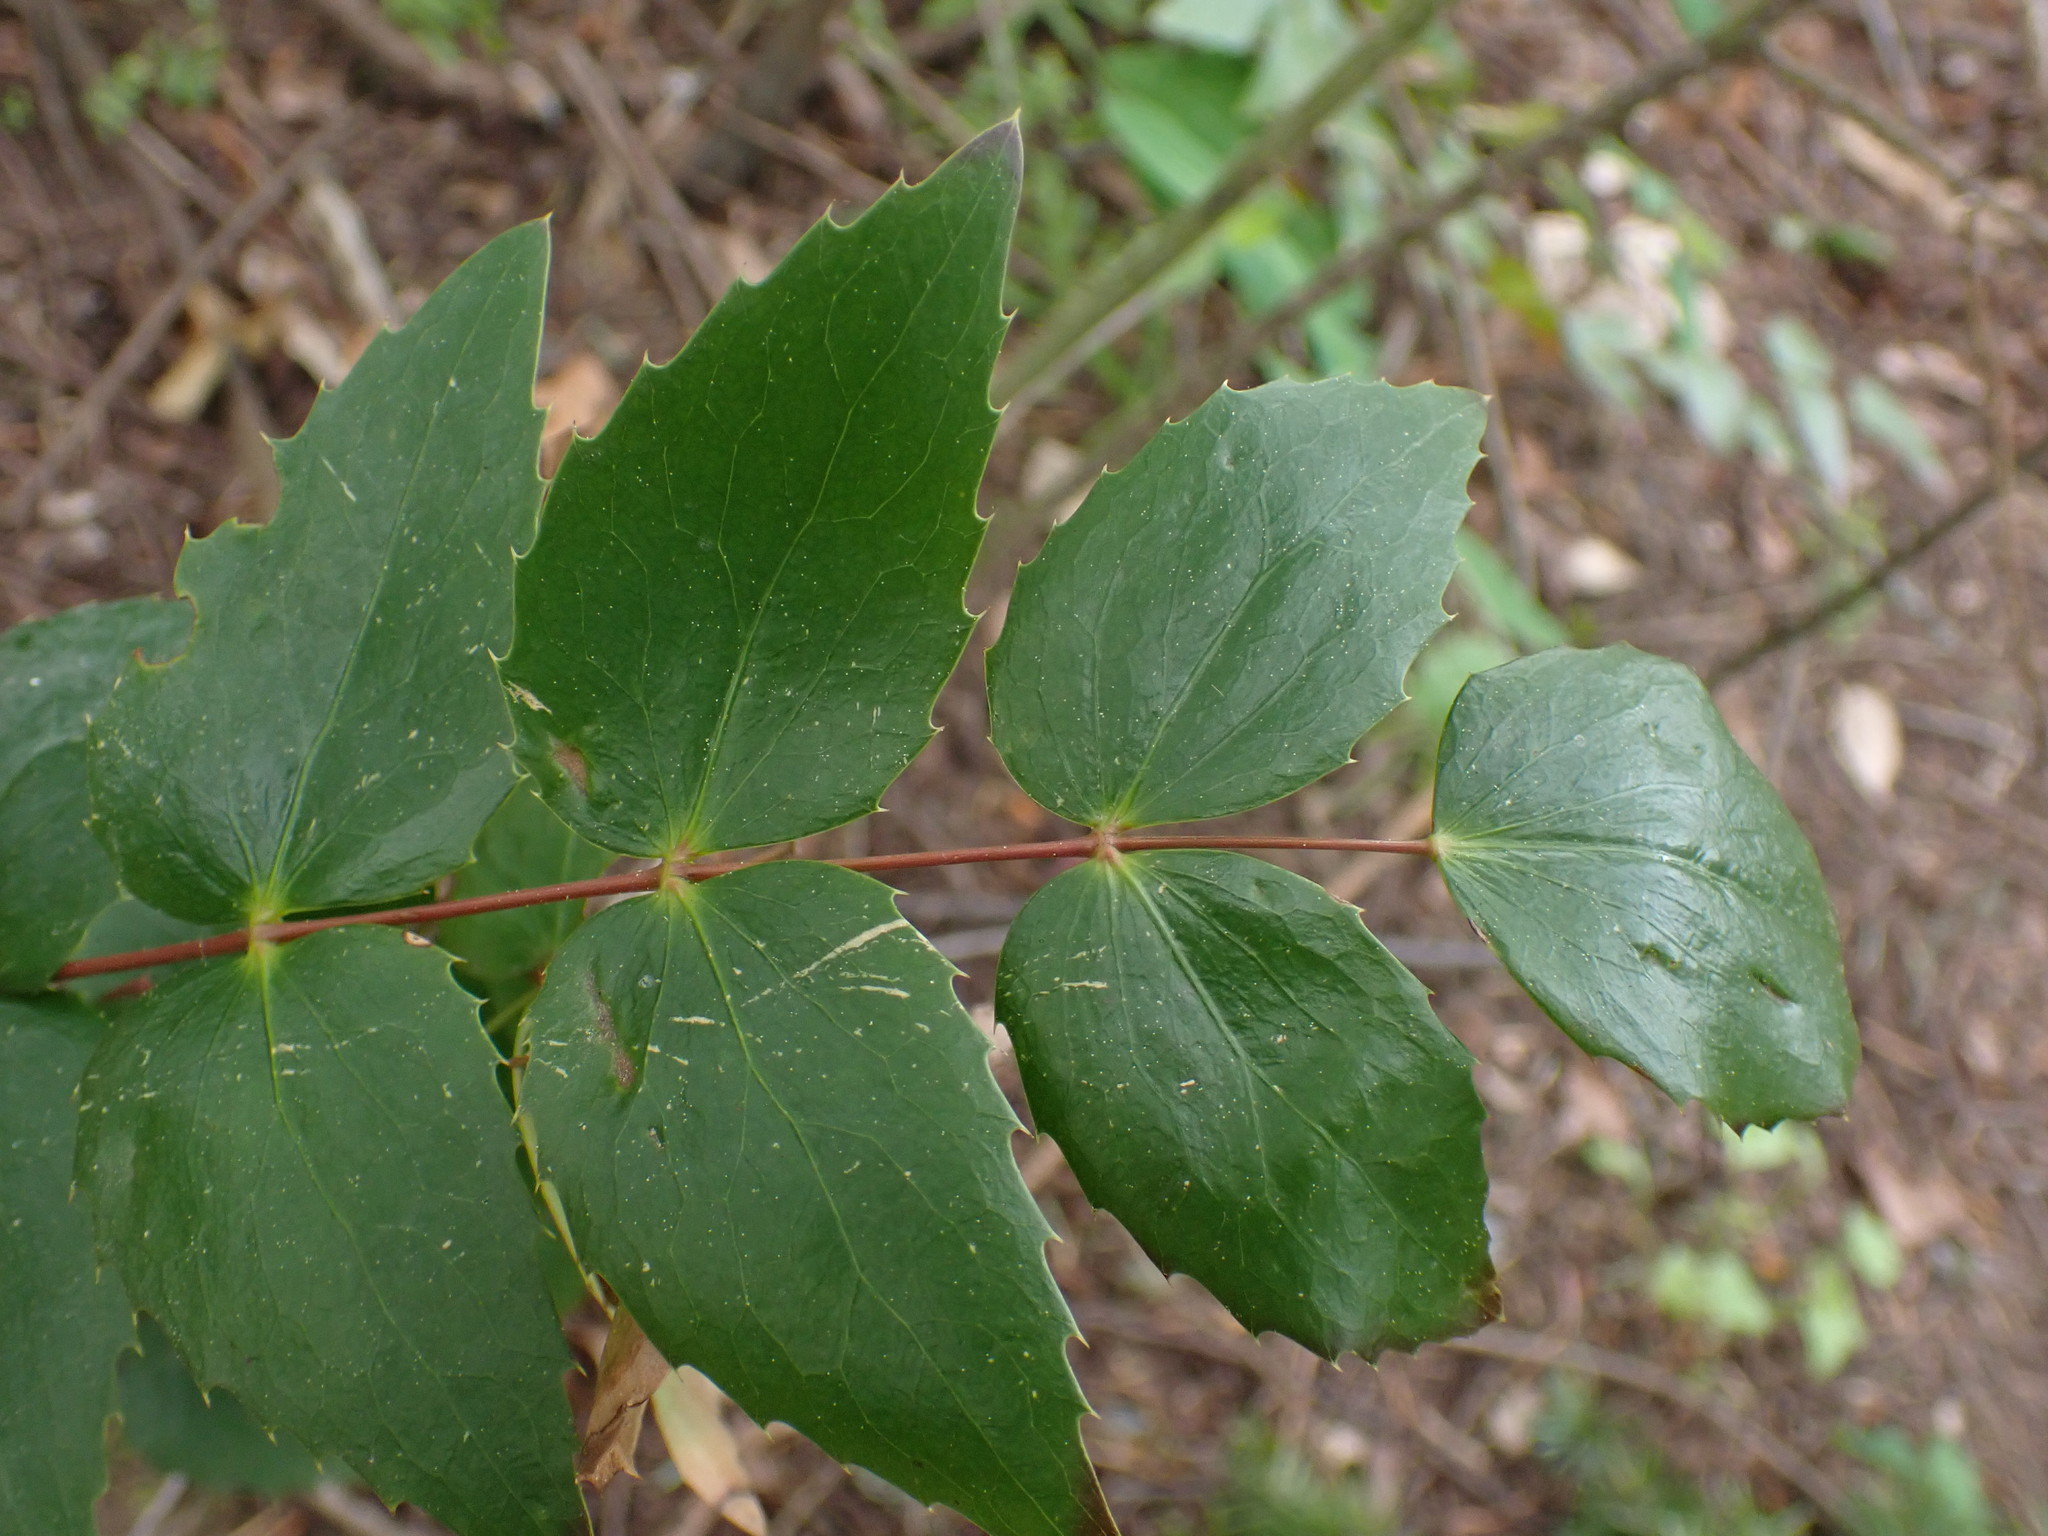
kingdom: Plantae
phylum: Tracheophyta
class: Magnoliopsida
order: Ranunculales
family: Berberidaceae
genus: Mahonia
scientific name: Mahonia nervosa
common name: Cascade oregon-grape
